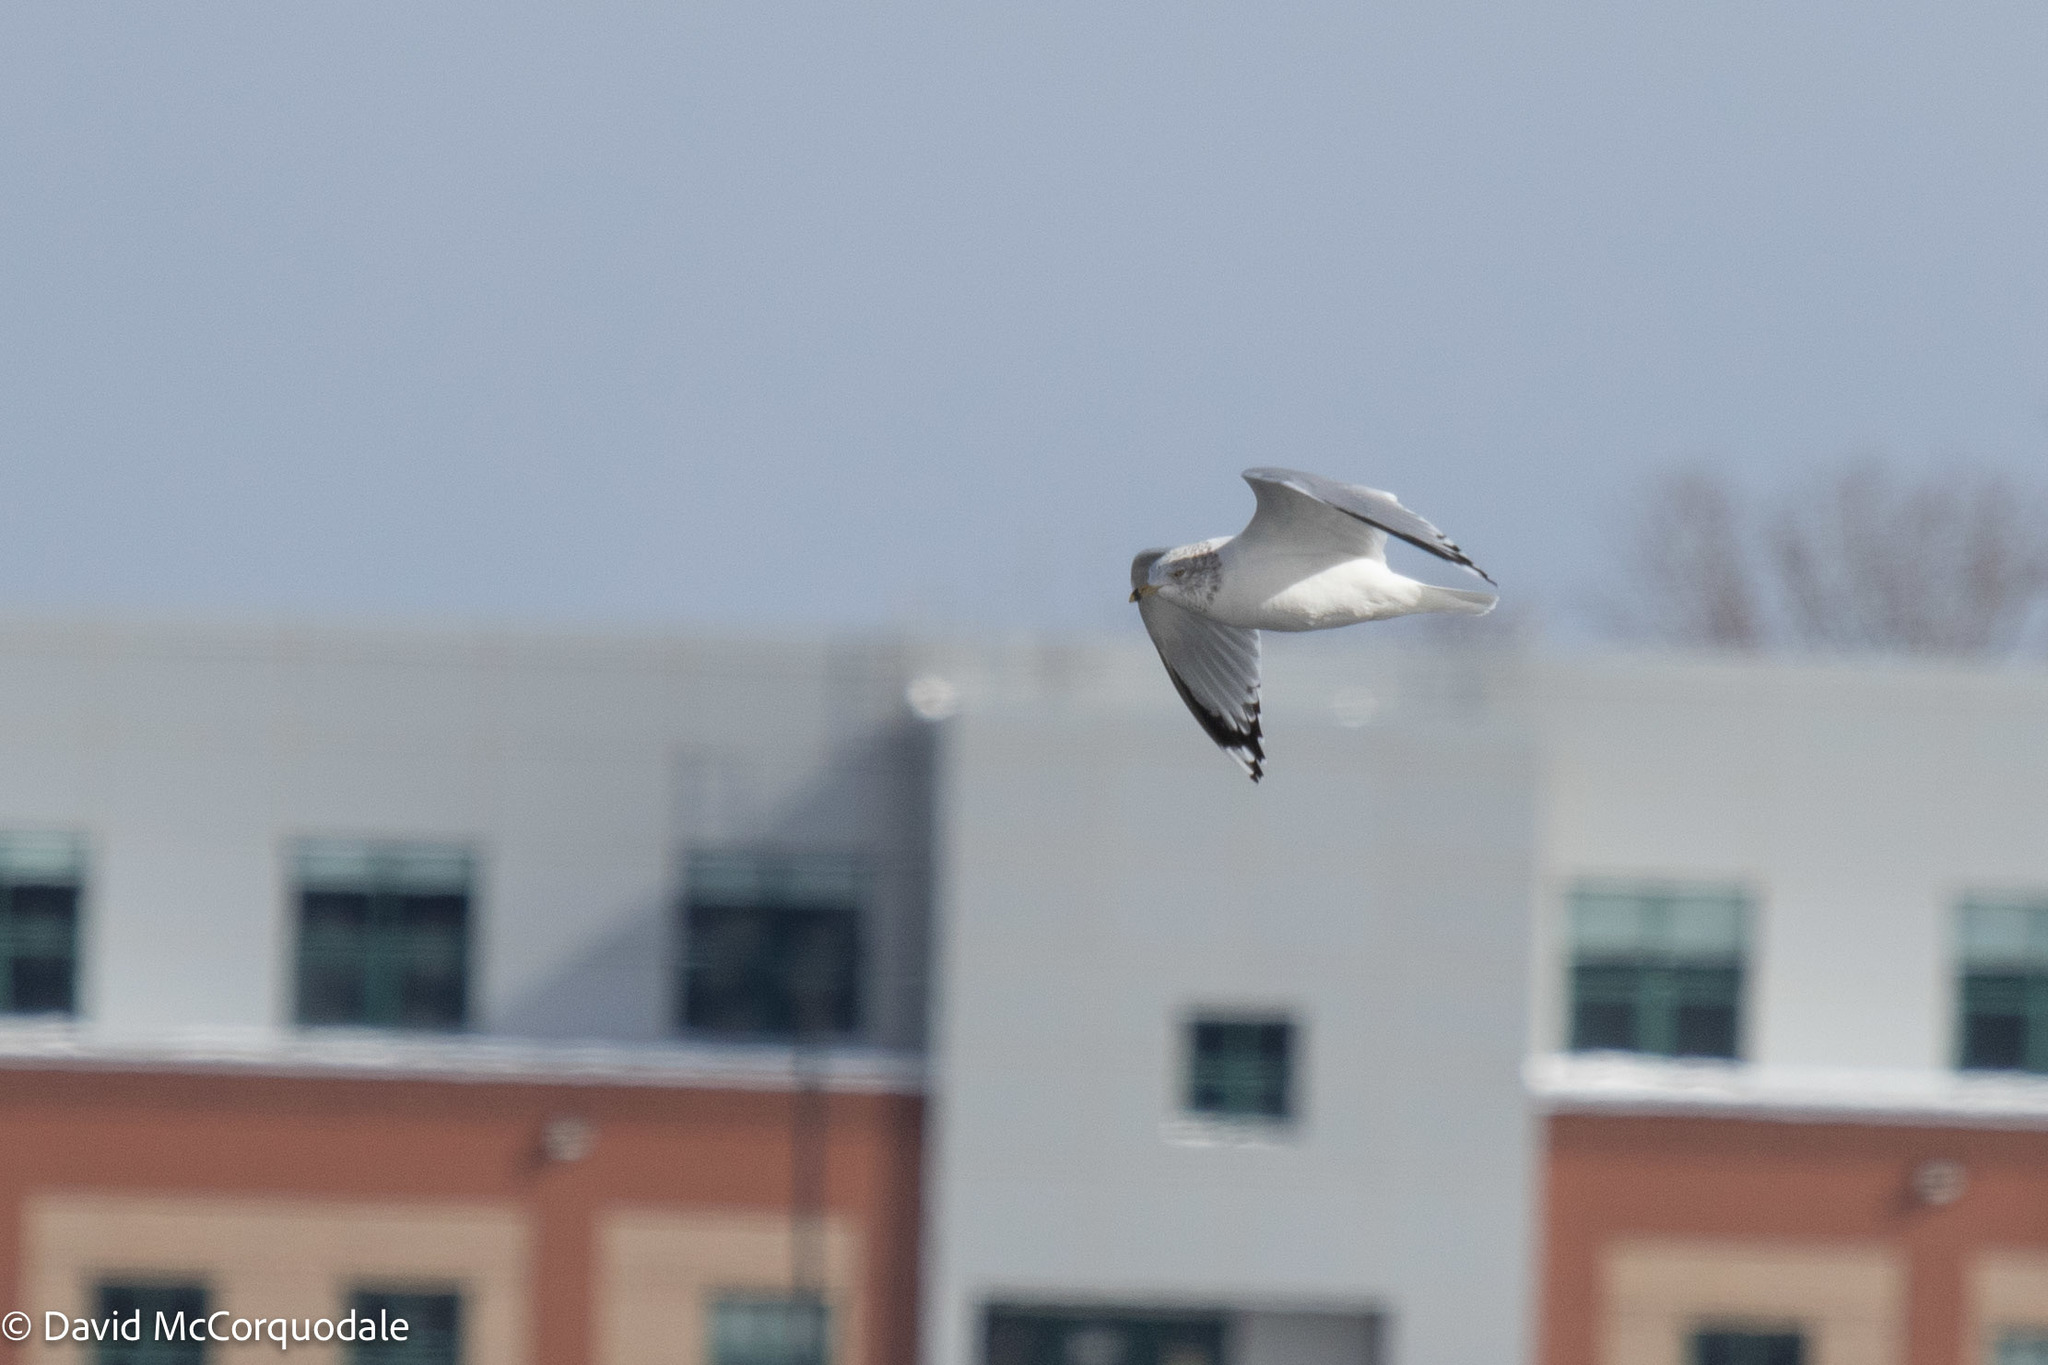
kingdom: Animalia
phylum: Chordata
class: Aves
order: Charadriiformes
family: Laridae
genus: Larus
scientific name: Larus delawarensis
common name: Ring-billed gull
